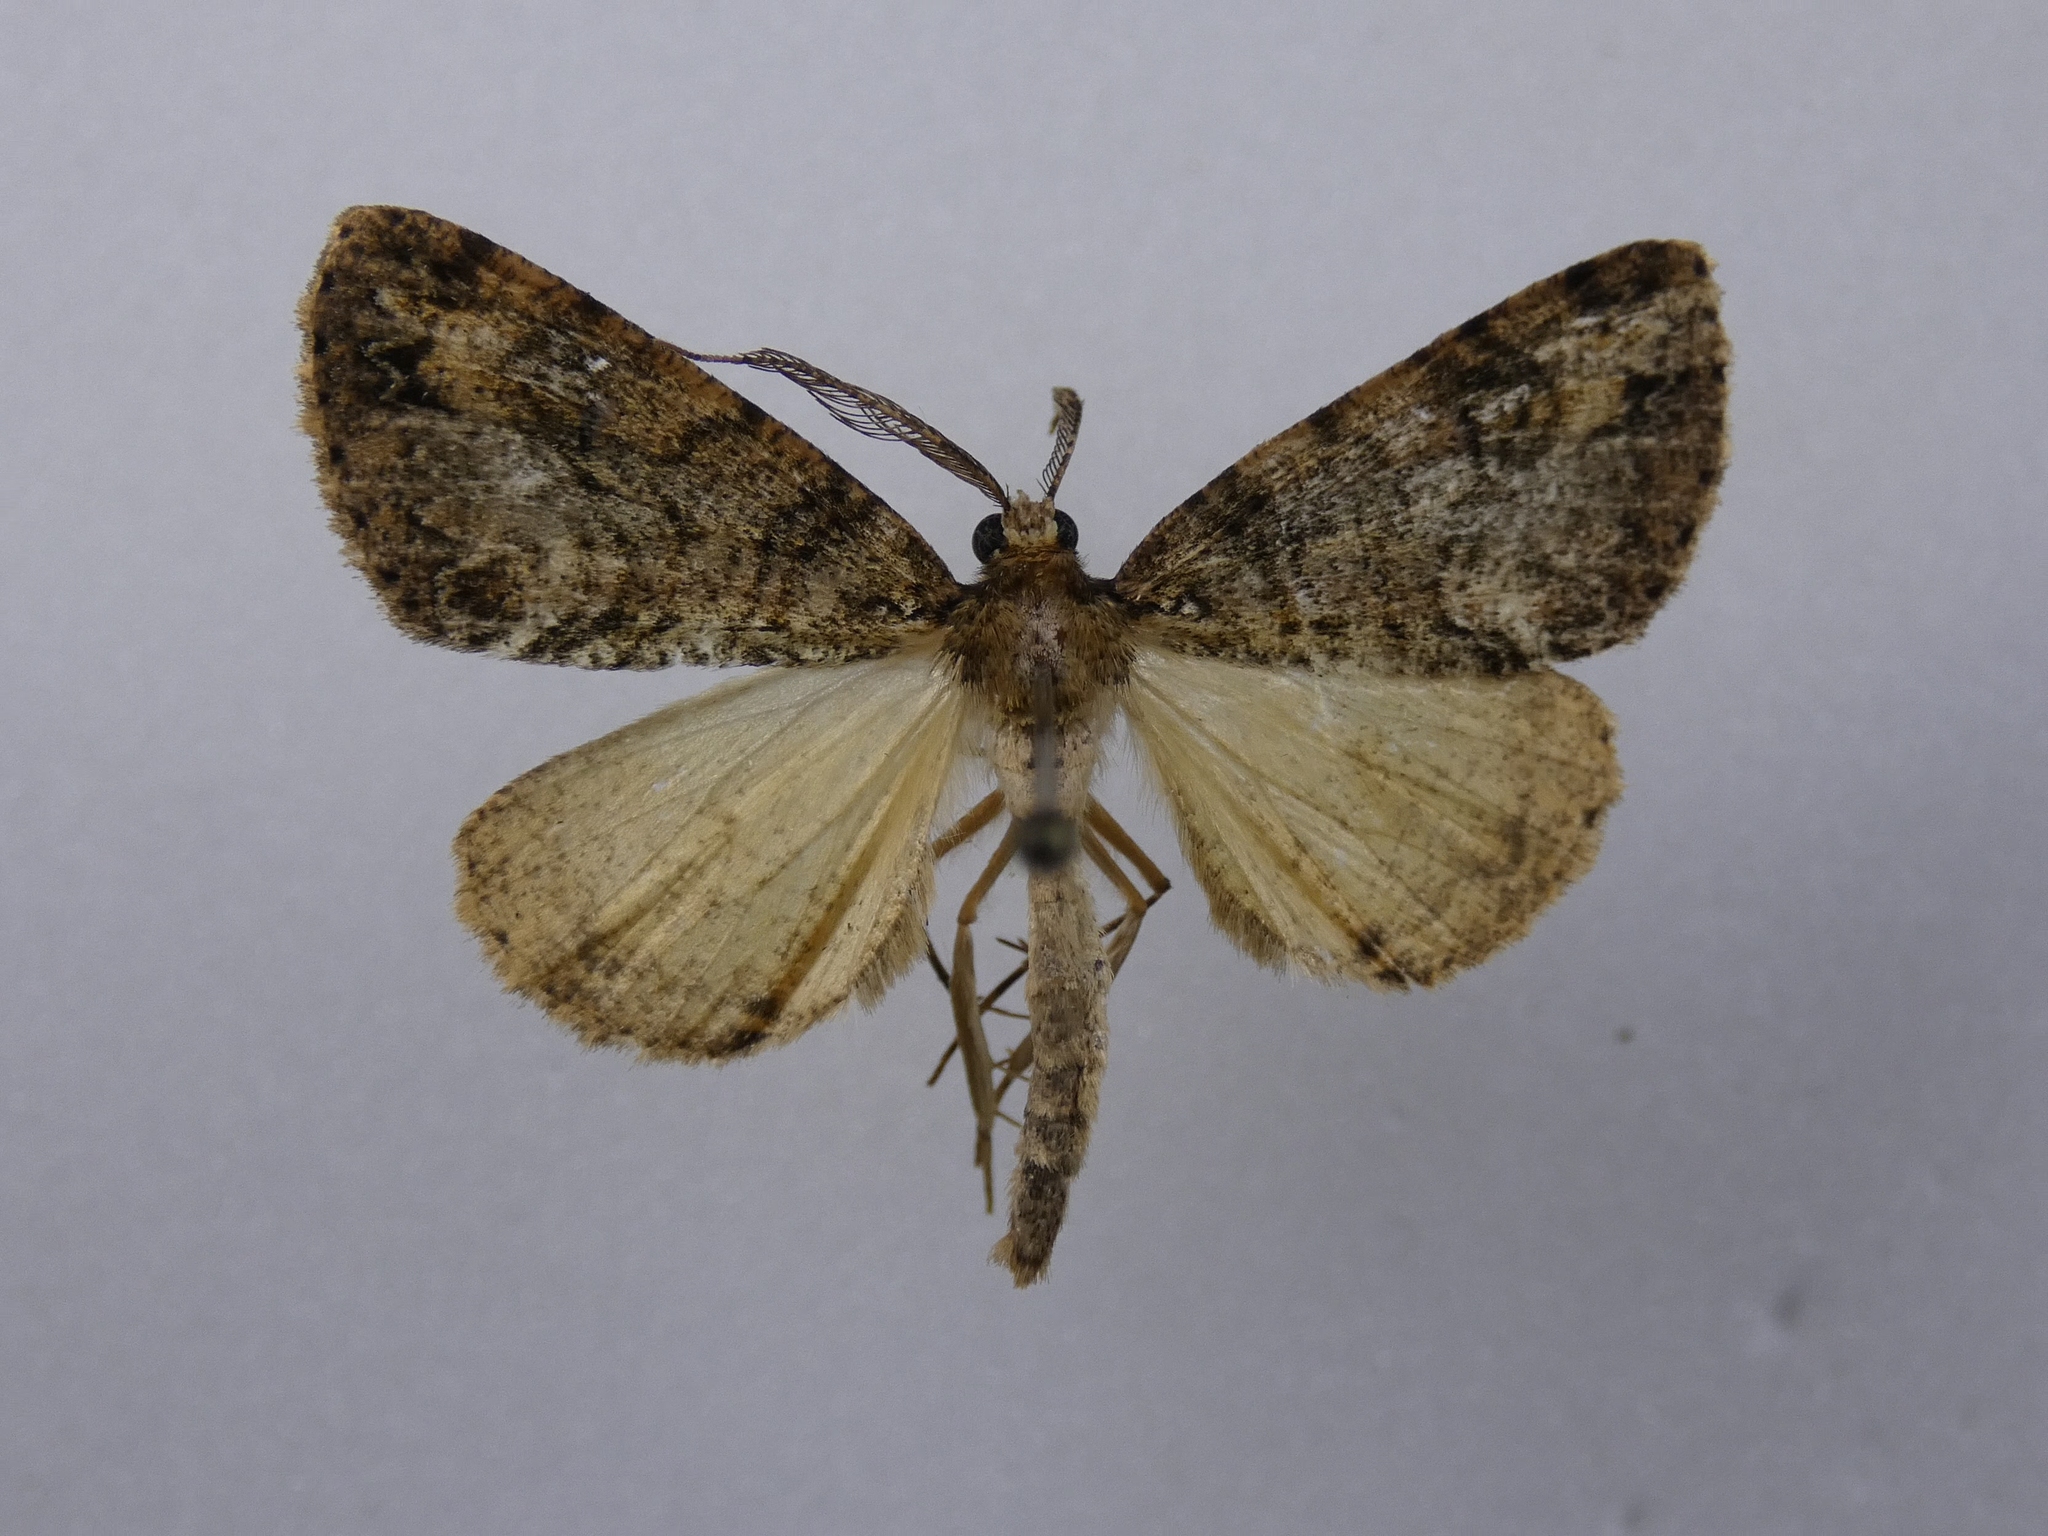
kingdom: Animalia
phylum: Arthropoda
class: Insecta
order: Lepidoptera
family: Geometridae
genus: Pseudocoremia
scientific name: Pseudocoremia suavis
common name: Common forest looper
